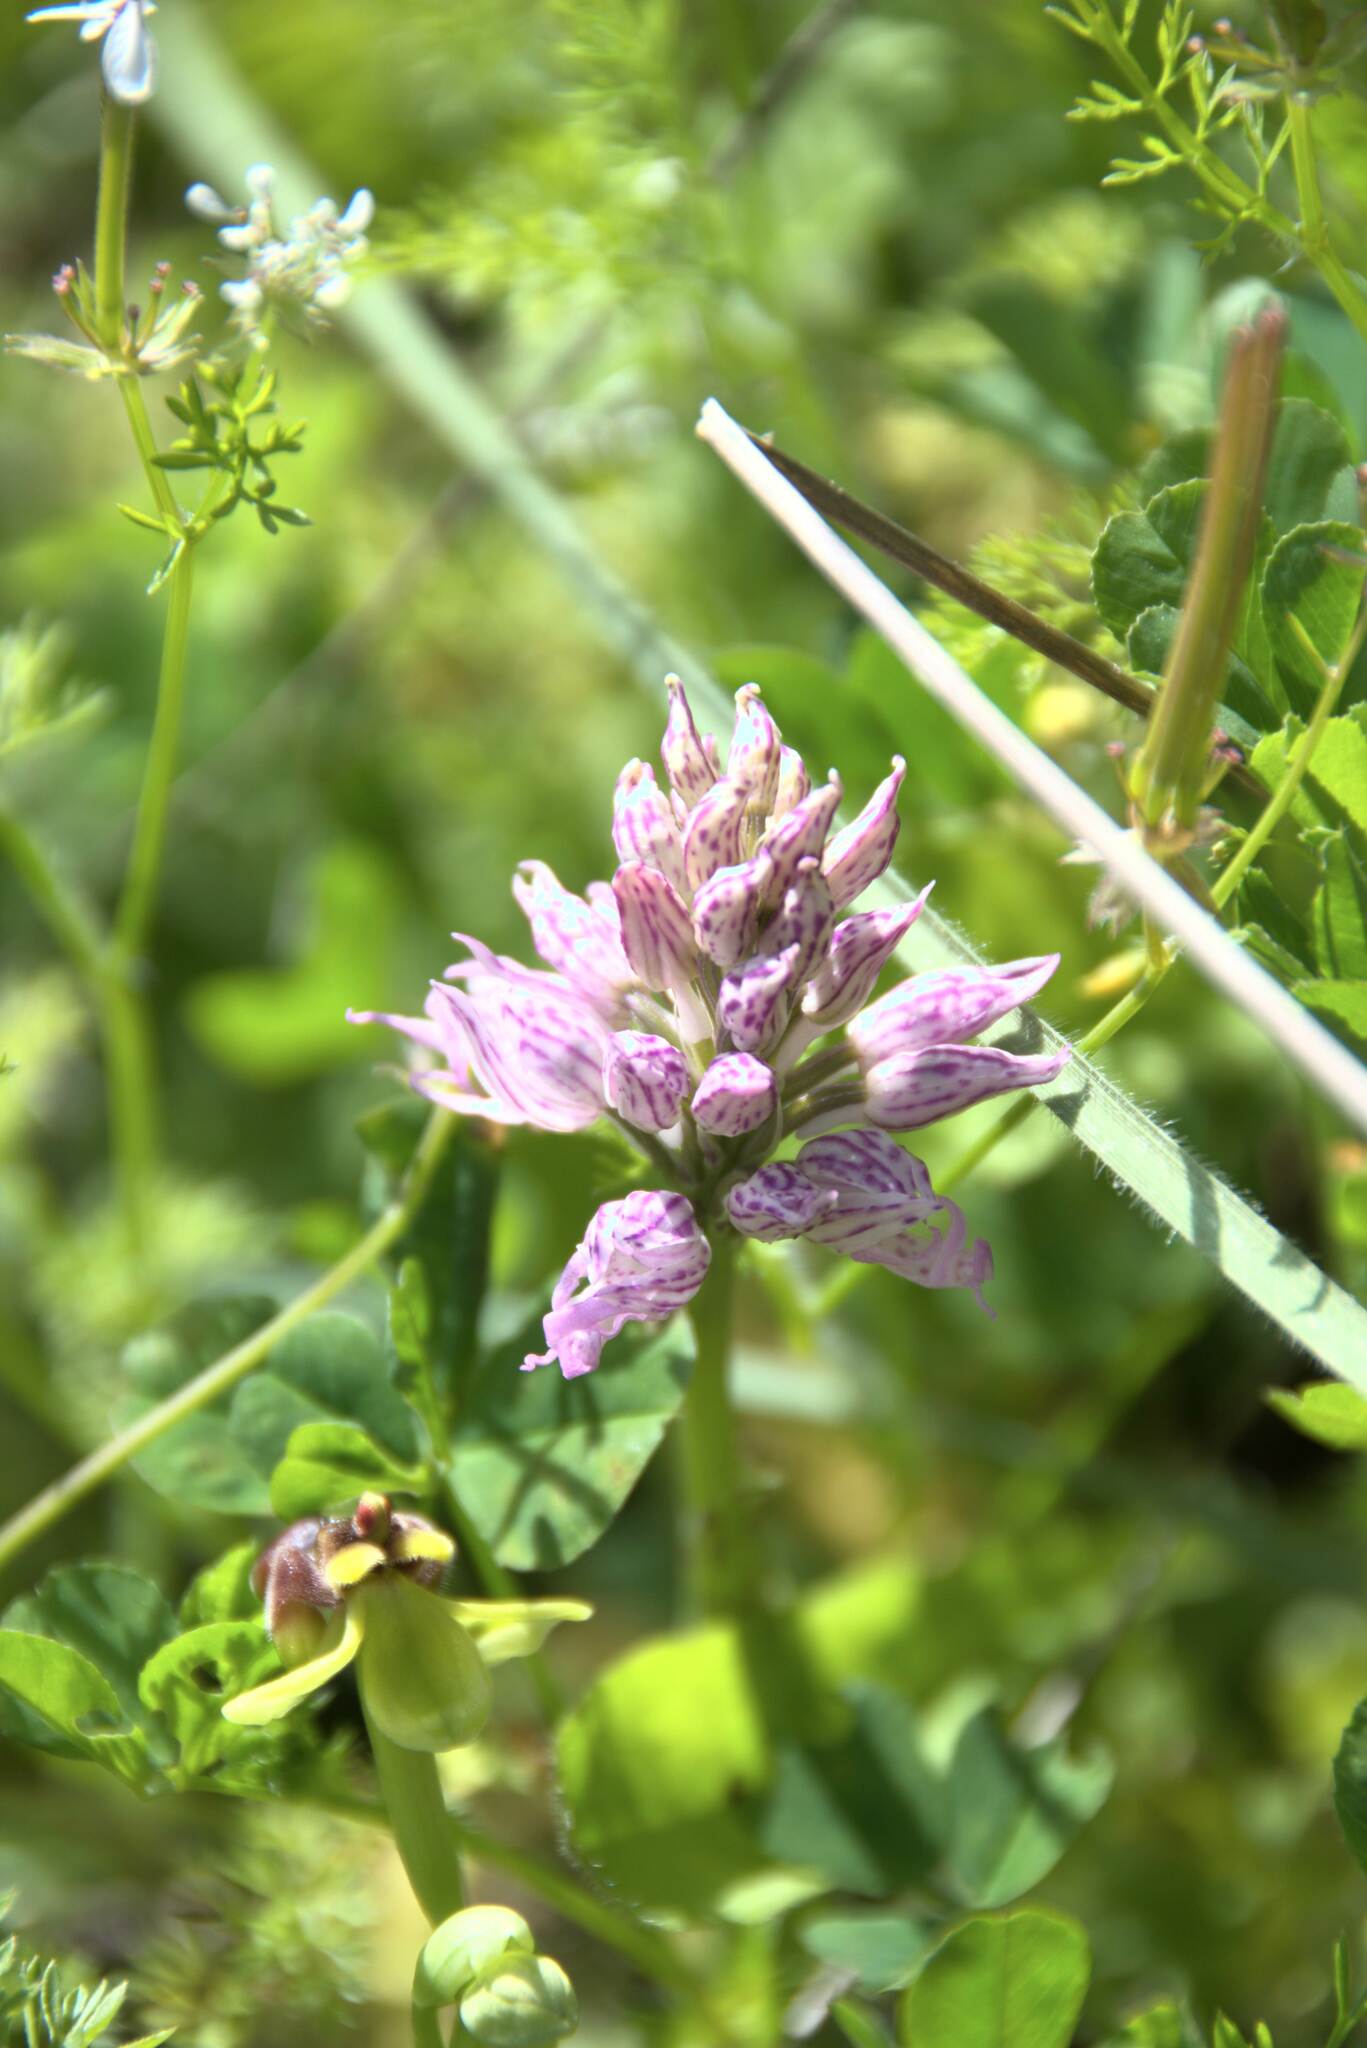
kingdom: Plantae
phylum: Tracheophyta
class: Liliopsida
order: Asparagales
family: Orchidaceae
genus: Orchis
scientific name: Orchis italica
